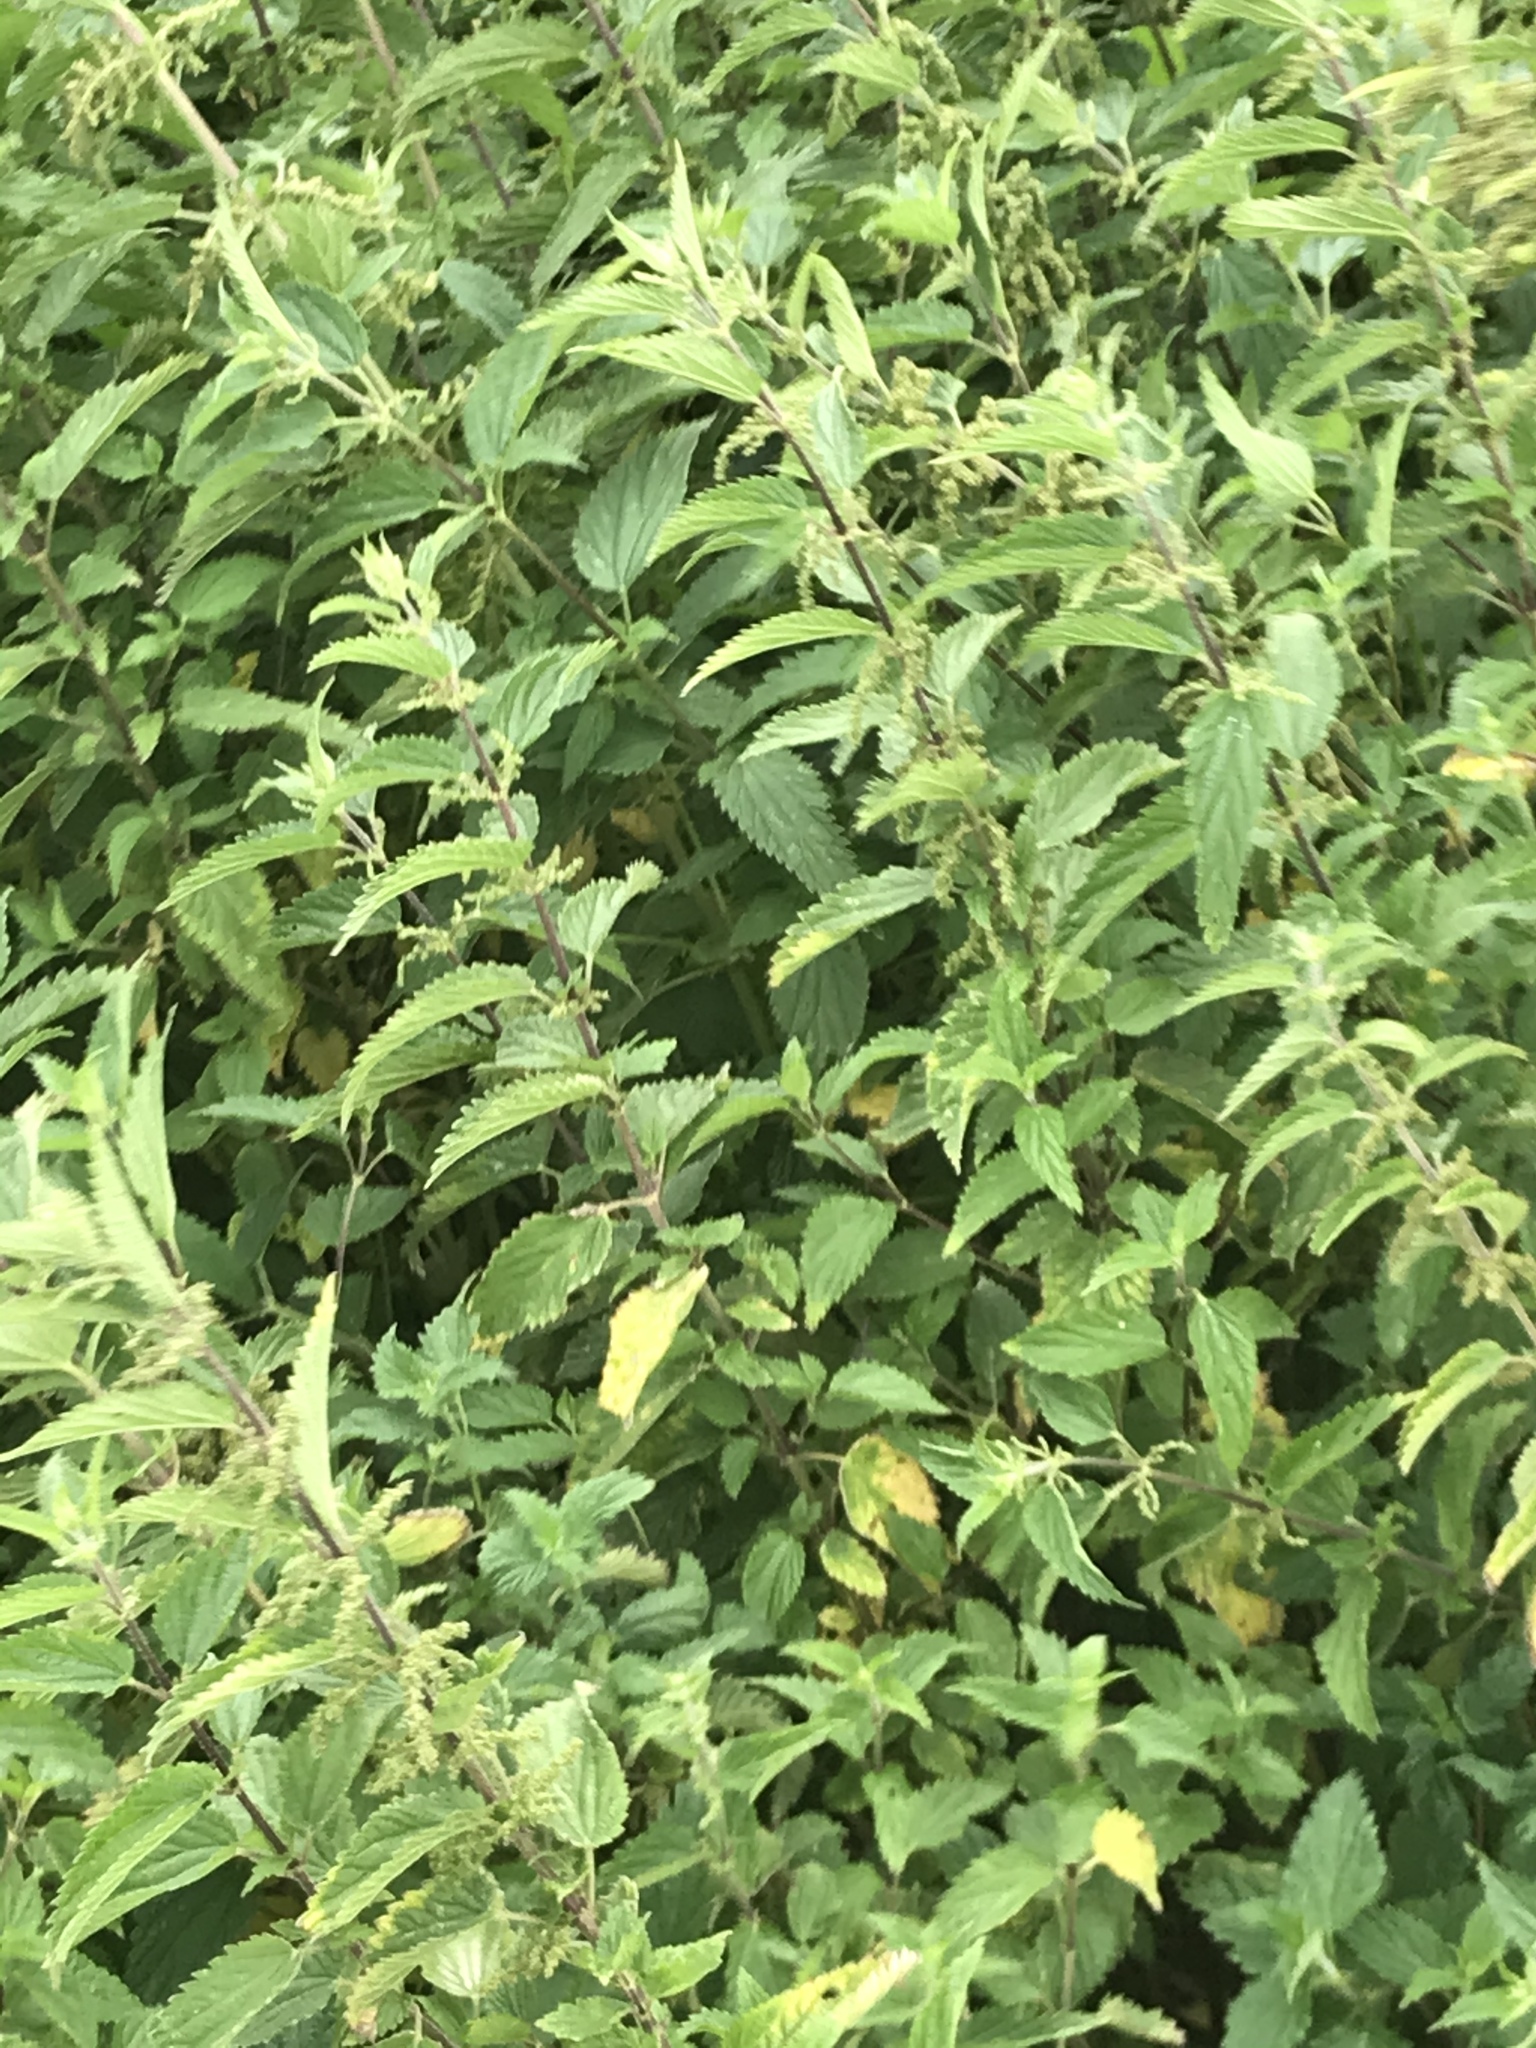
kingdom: Plantae
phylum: Tracheophyta
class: Magnoliopsida
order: Rosales
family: Urticaceae
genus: Urtica
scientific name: Urtica dioica
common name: Common nettle
